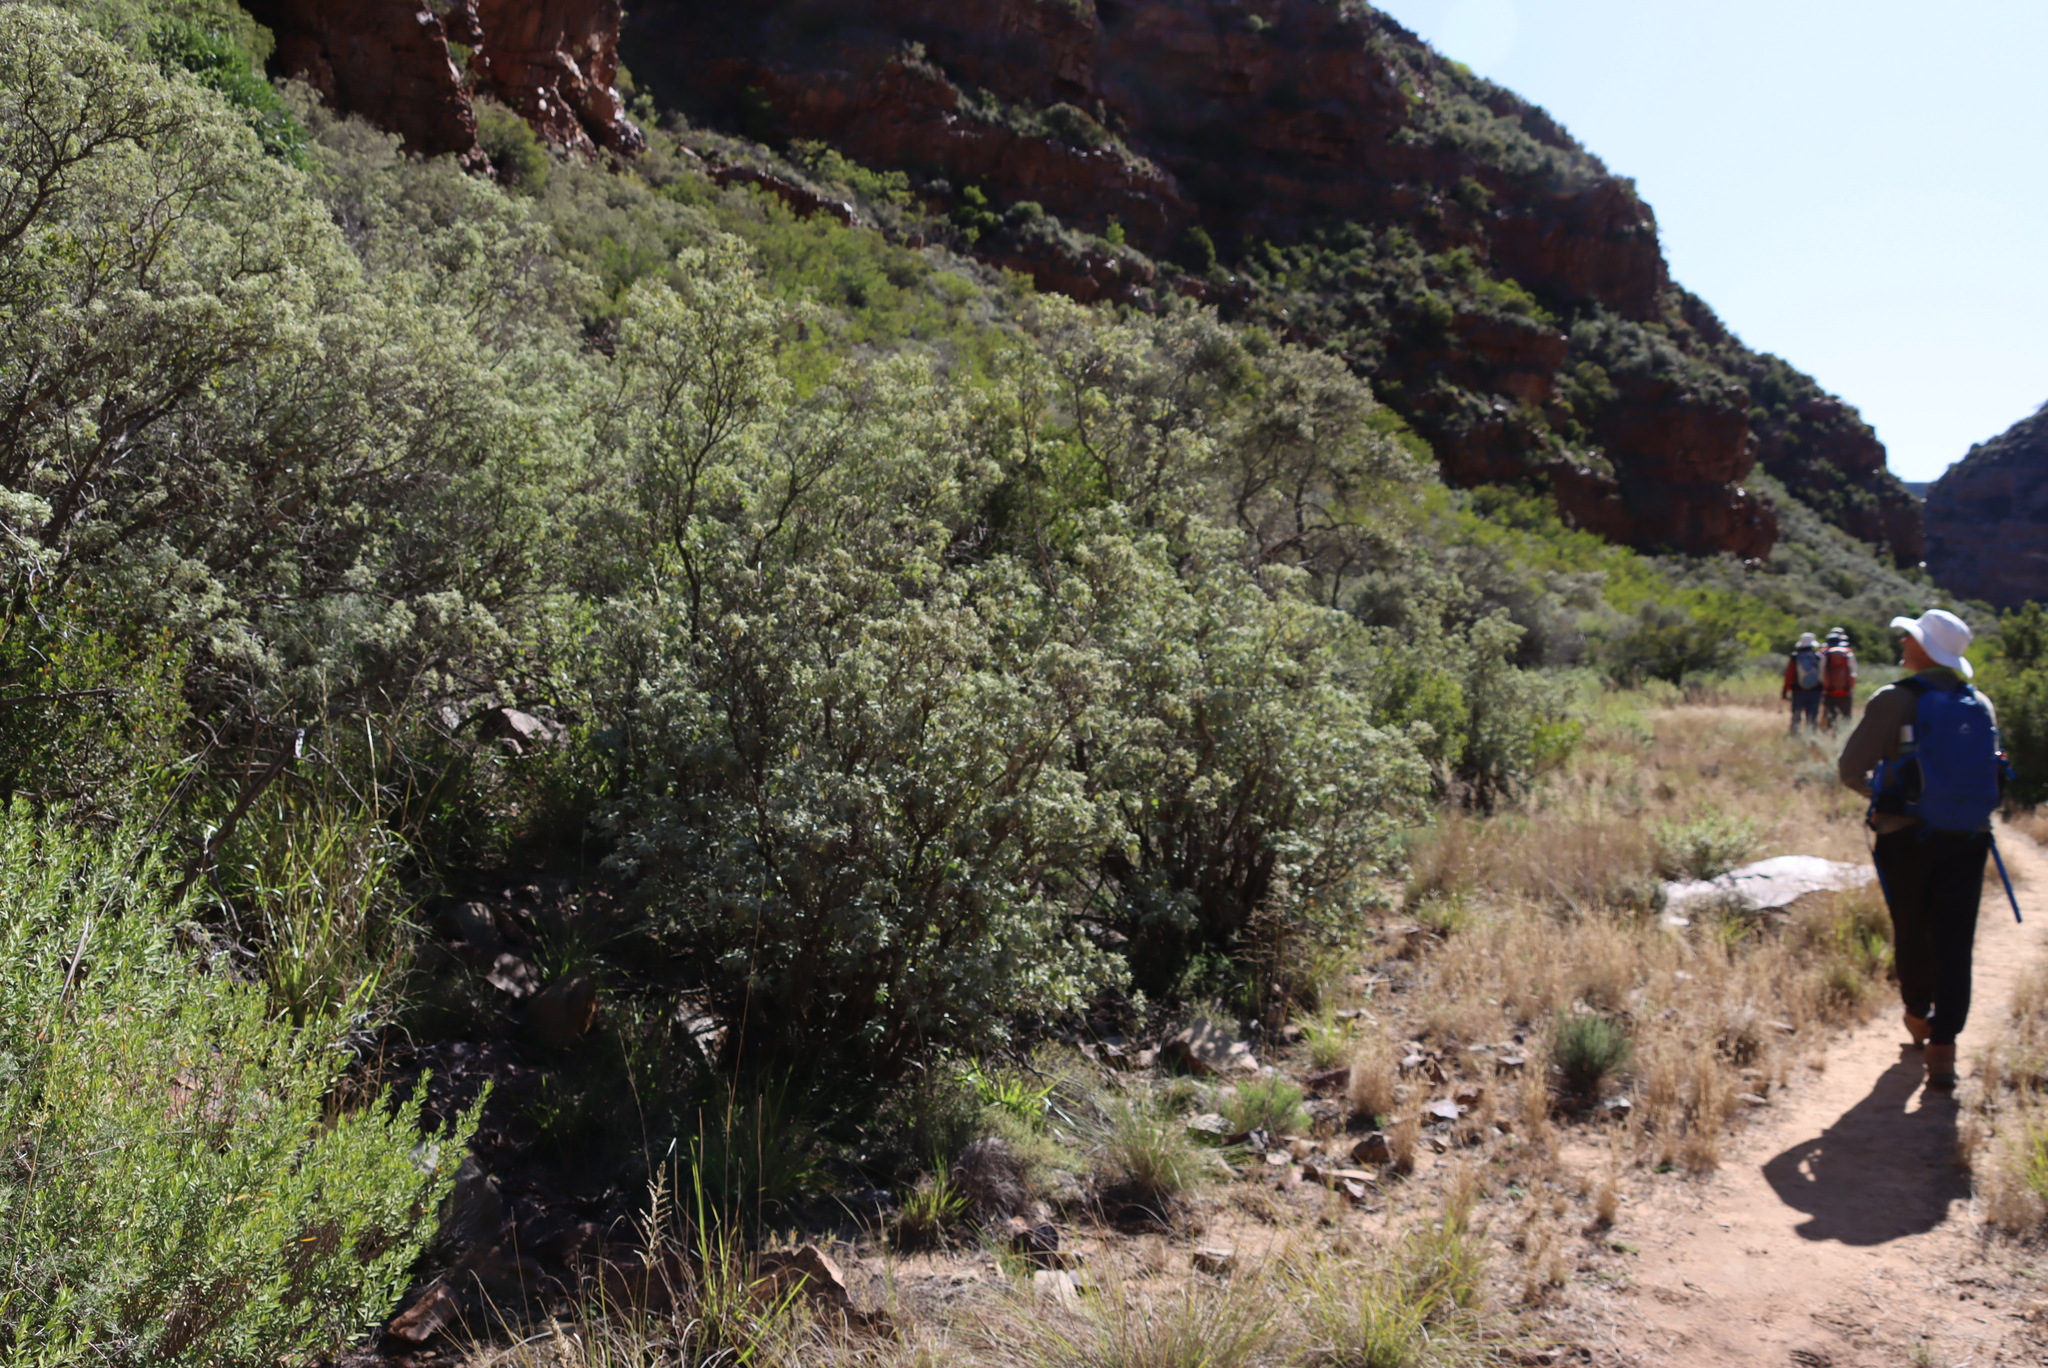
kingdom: Plantae
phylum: Tracheophyta
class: Magnoliopsida
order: Lamiales
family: Scrophulariaceae
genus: Buddleja
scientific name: Buddleja glomerata
